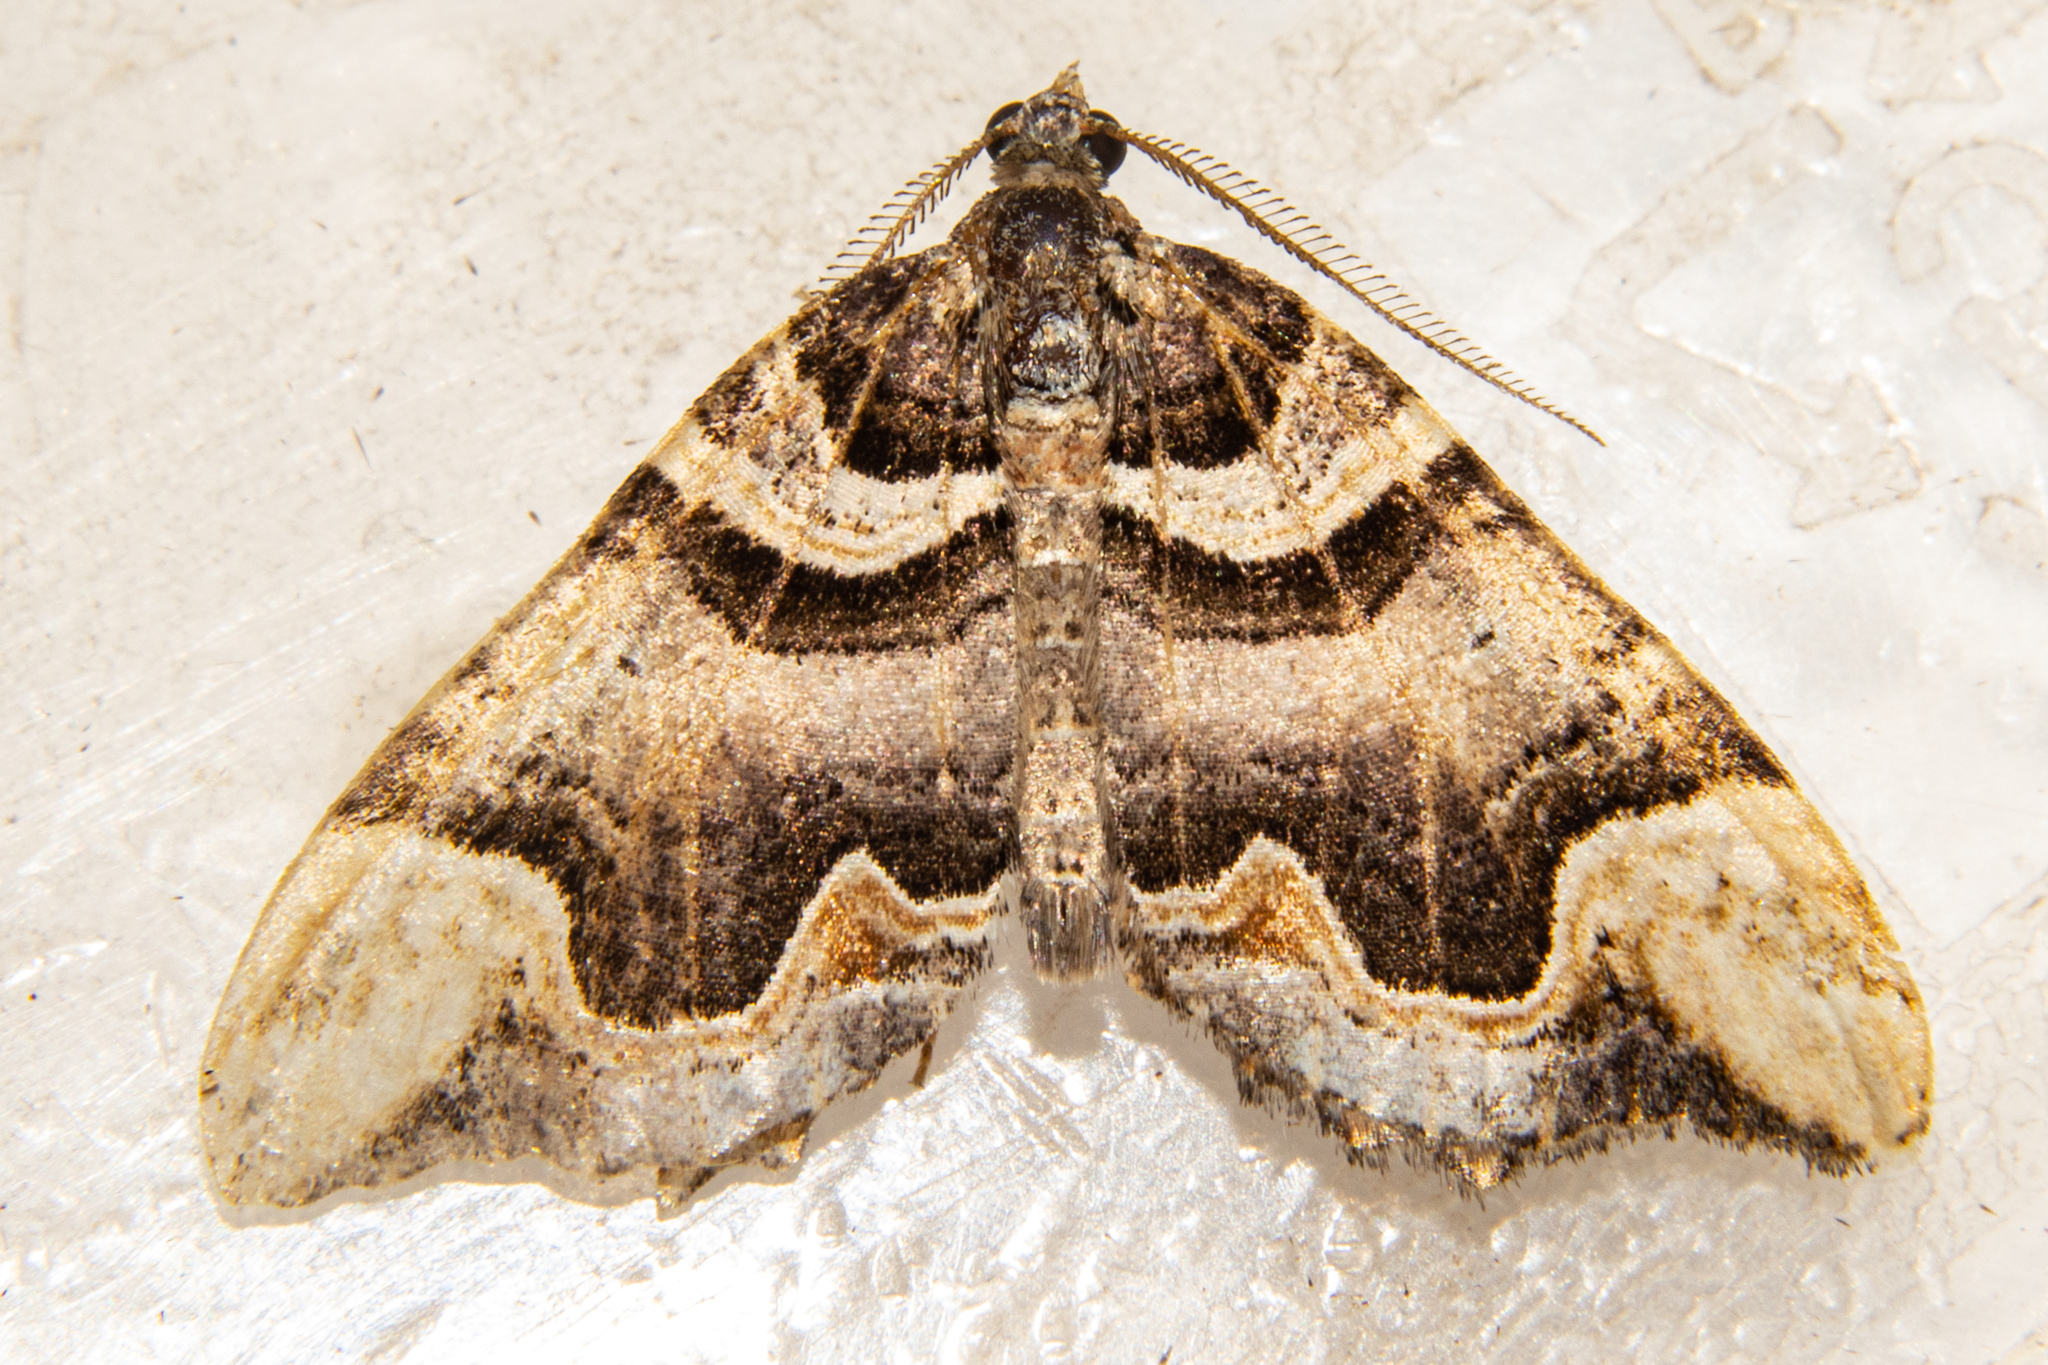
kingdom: Animalia
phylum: Arthropoda
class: Insecta
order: Lepidoptera
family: Geometridae
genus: Asaphodes
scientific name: Asaphodes chlamydota
